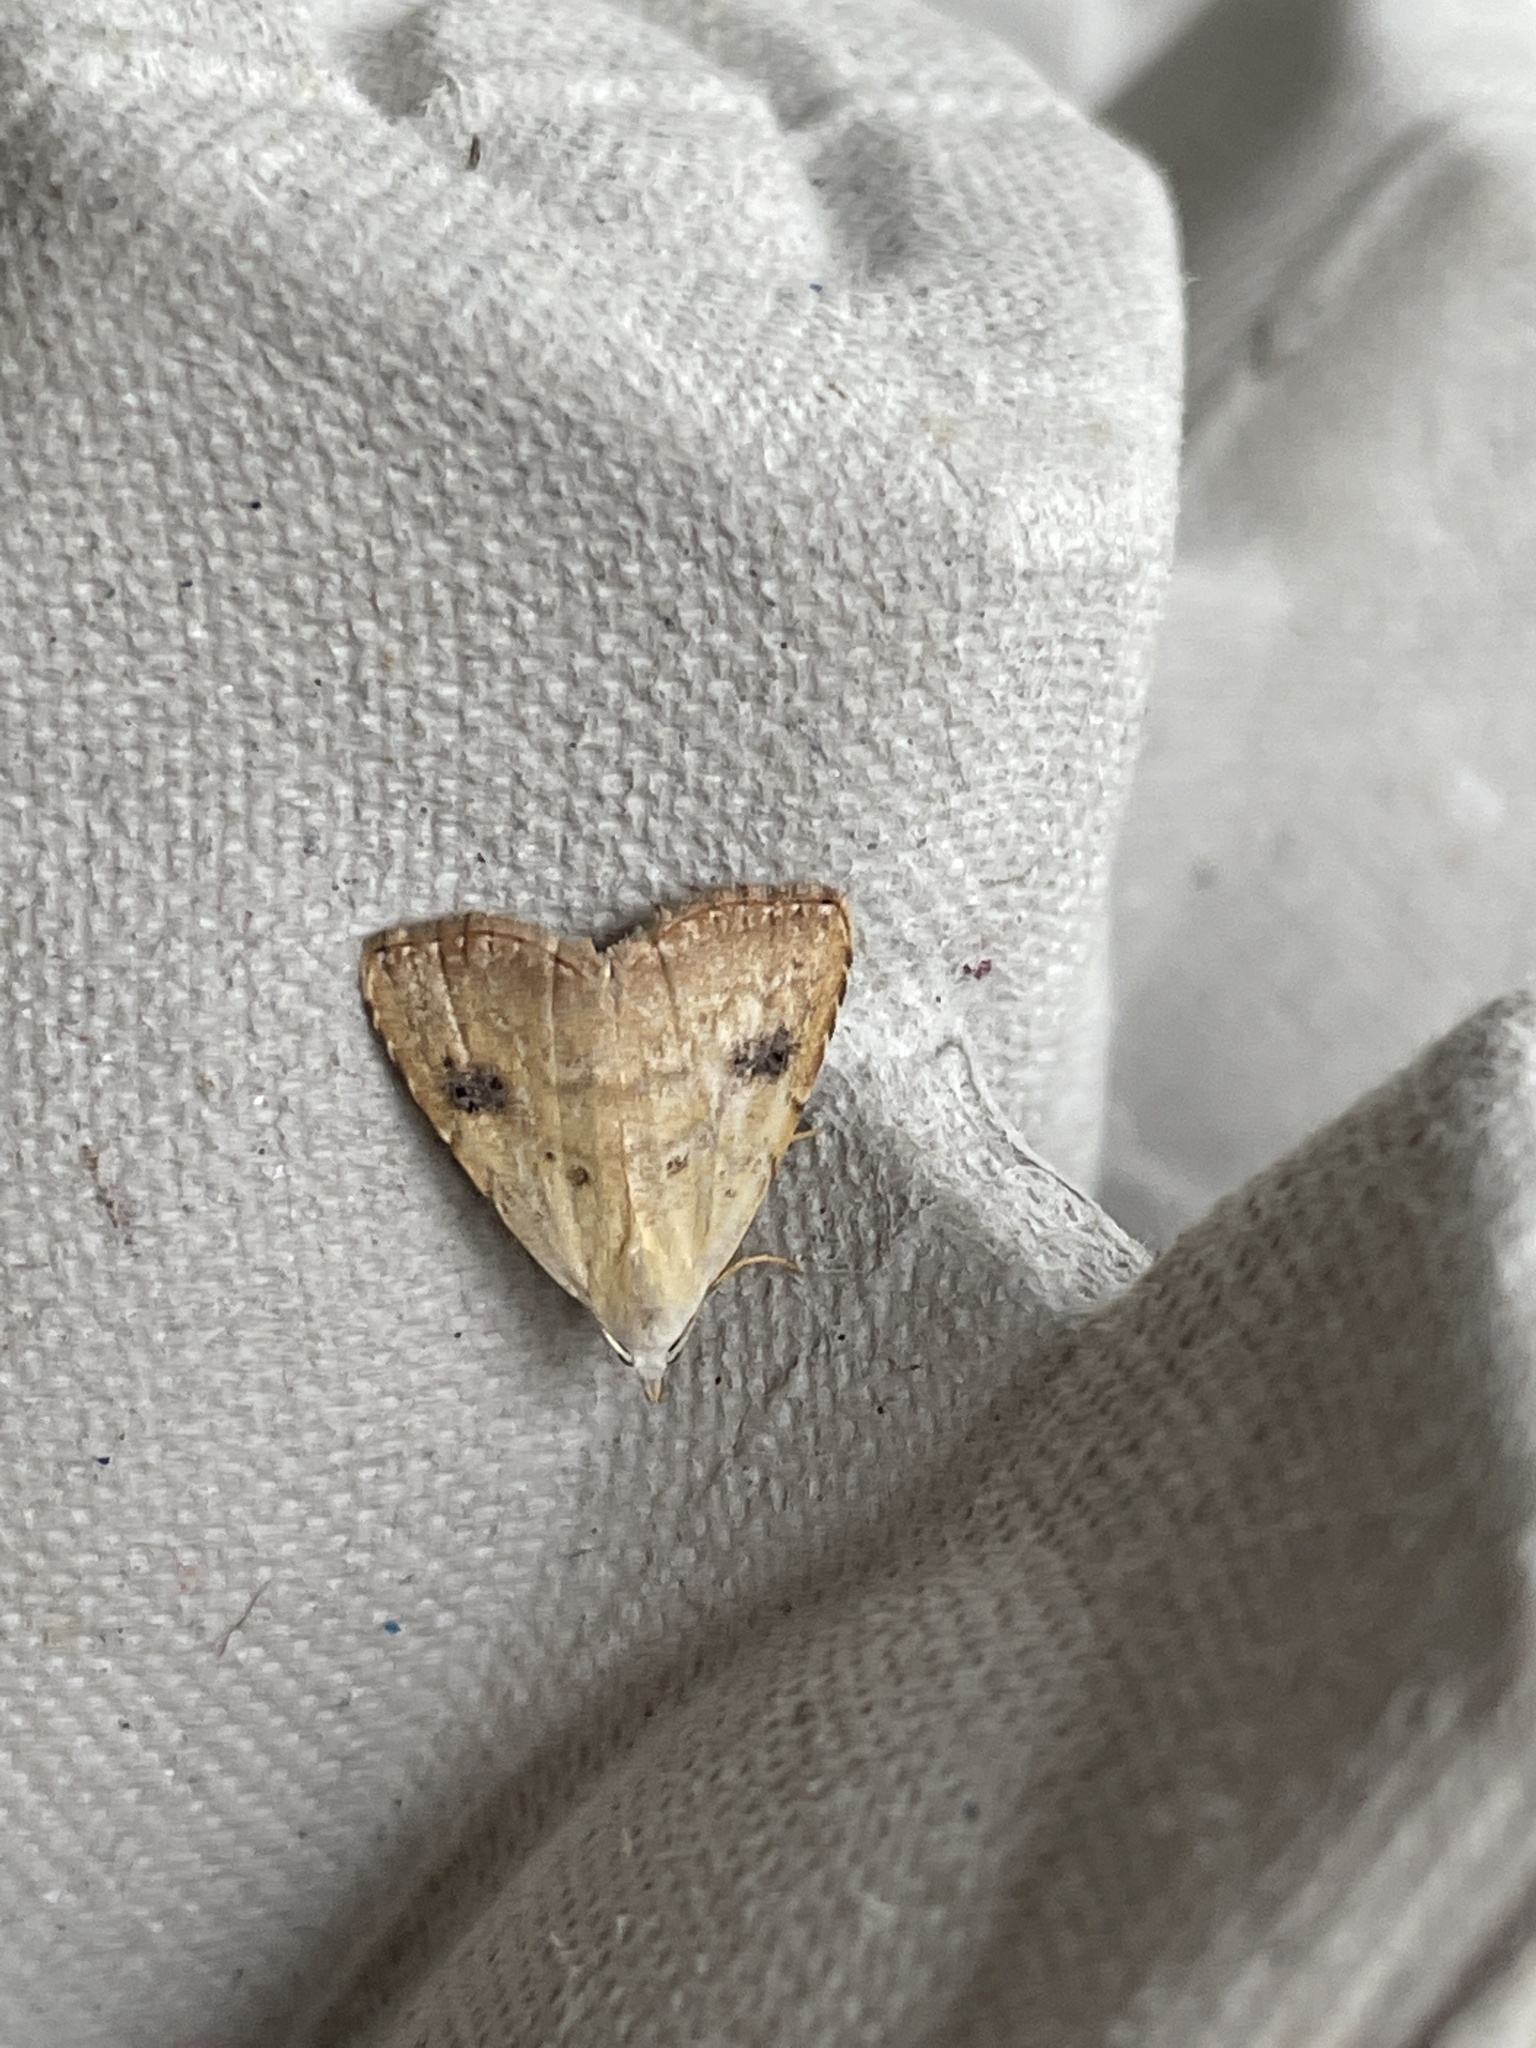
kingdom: Animalia
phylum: Arthropoda
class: Insecta
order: Lepidoptera
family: Erebidae
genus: Rivula
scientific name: Rivula sericealis
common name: Straw dot
